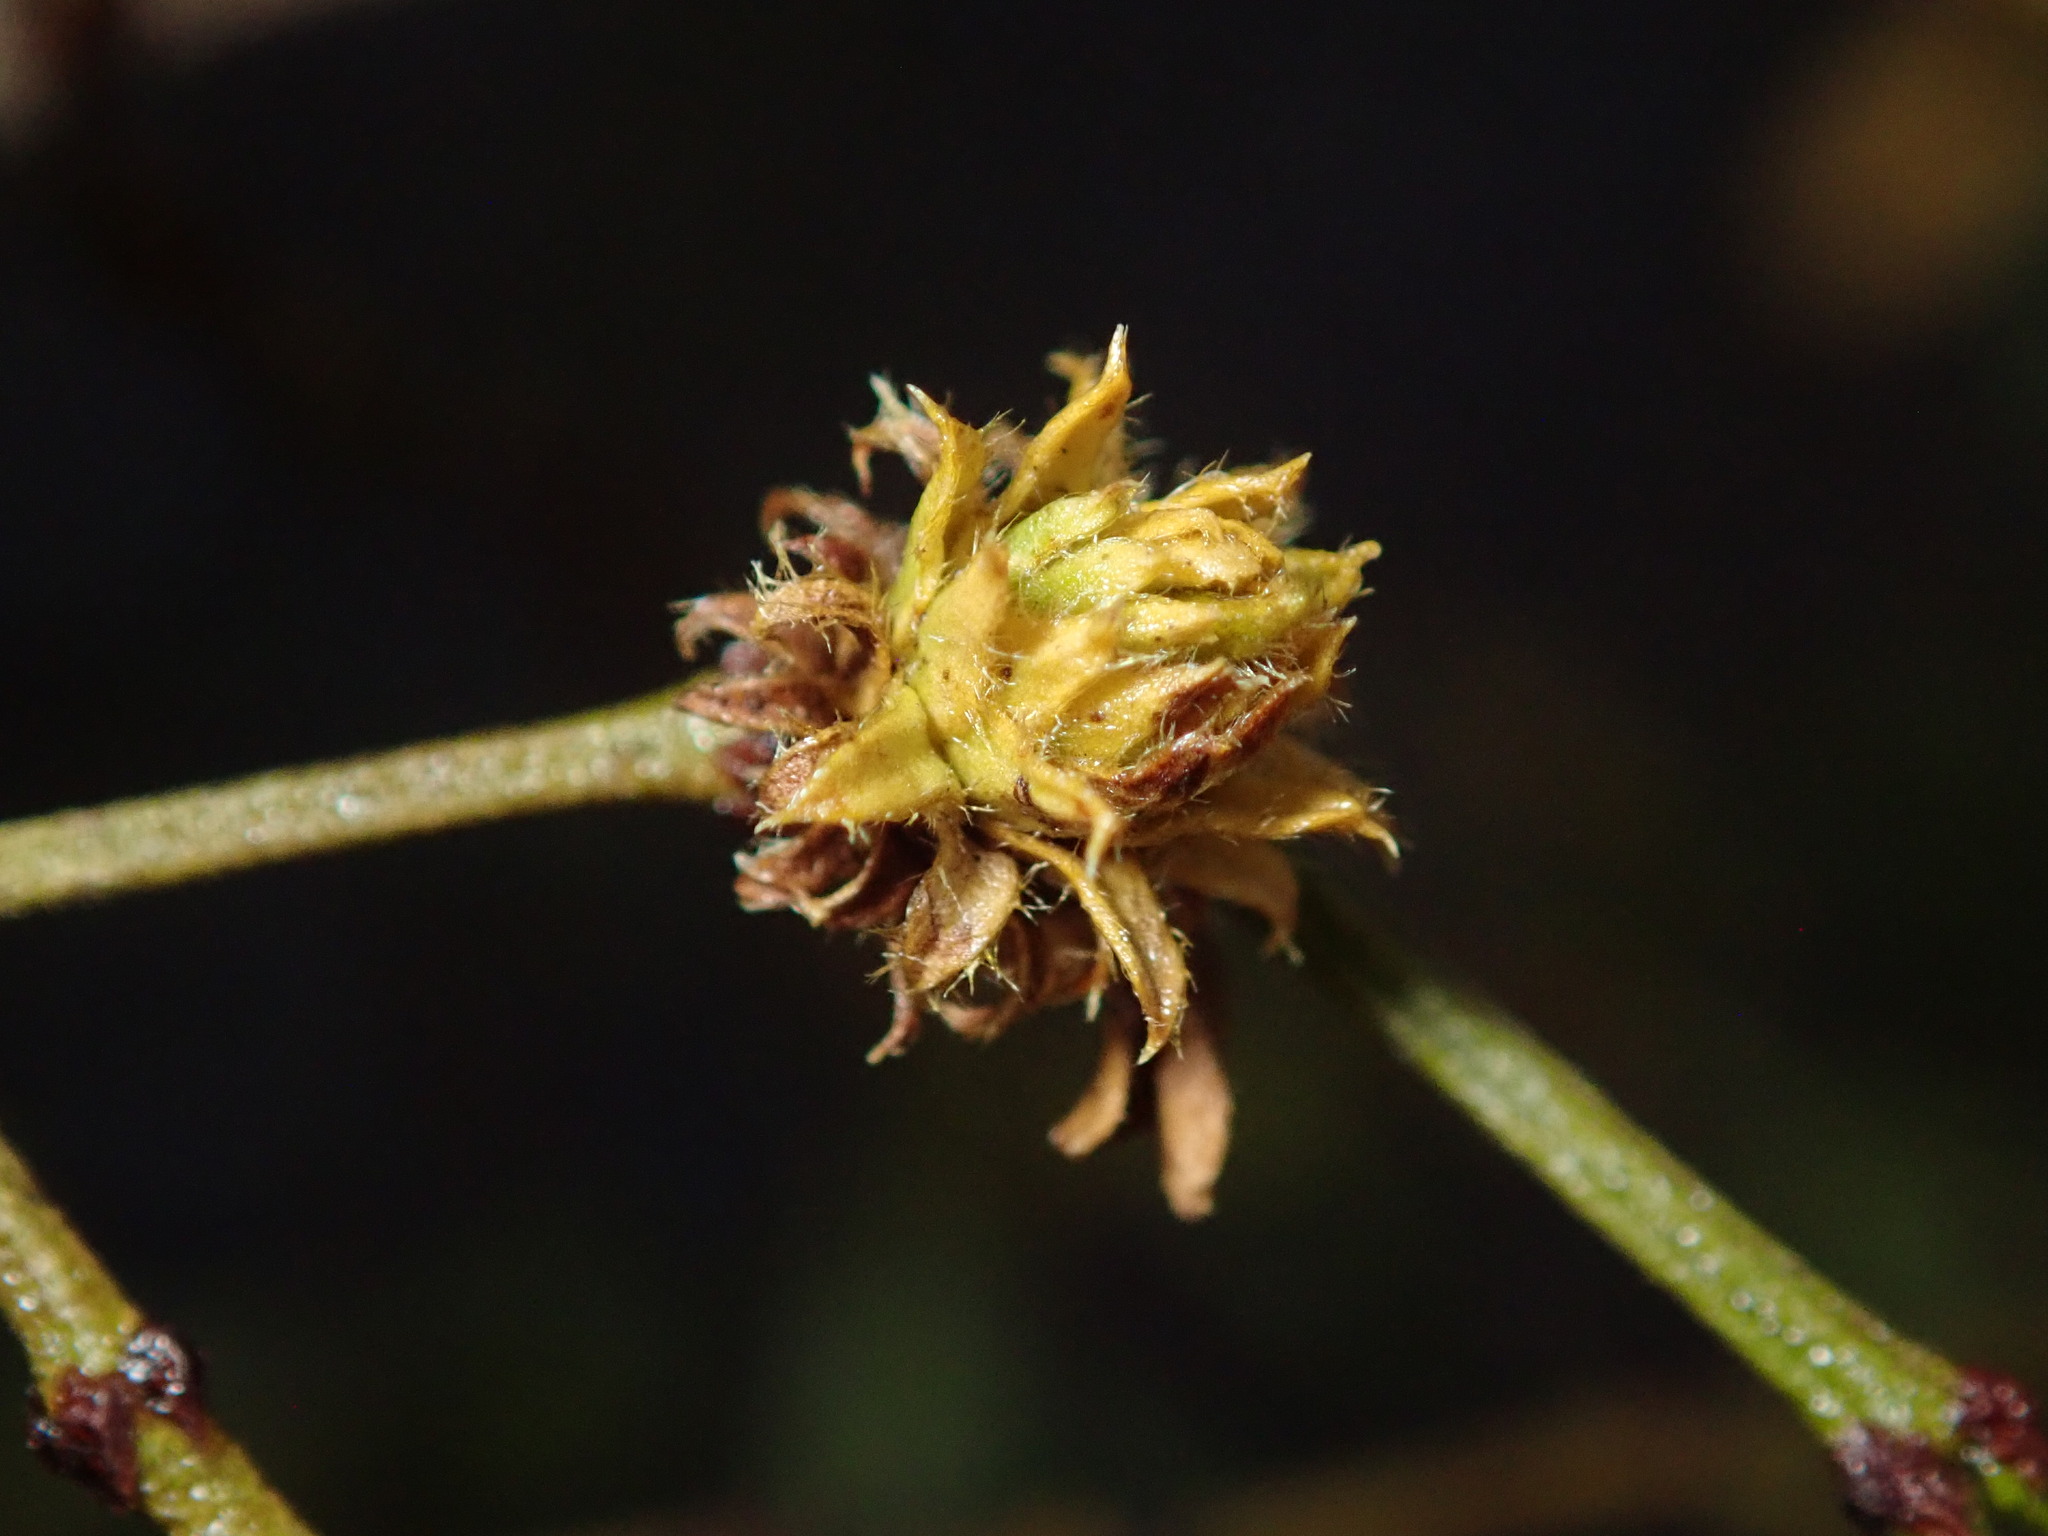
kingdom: Animalia
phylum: Arthropoda
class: Insecta
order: Diptera
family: Cecidomyiidae
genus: Asphondylia
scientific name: Asphondylia rosetta
